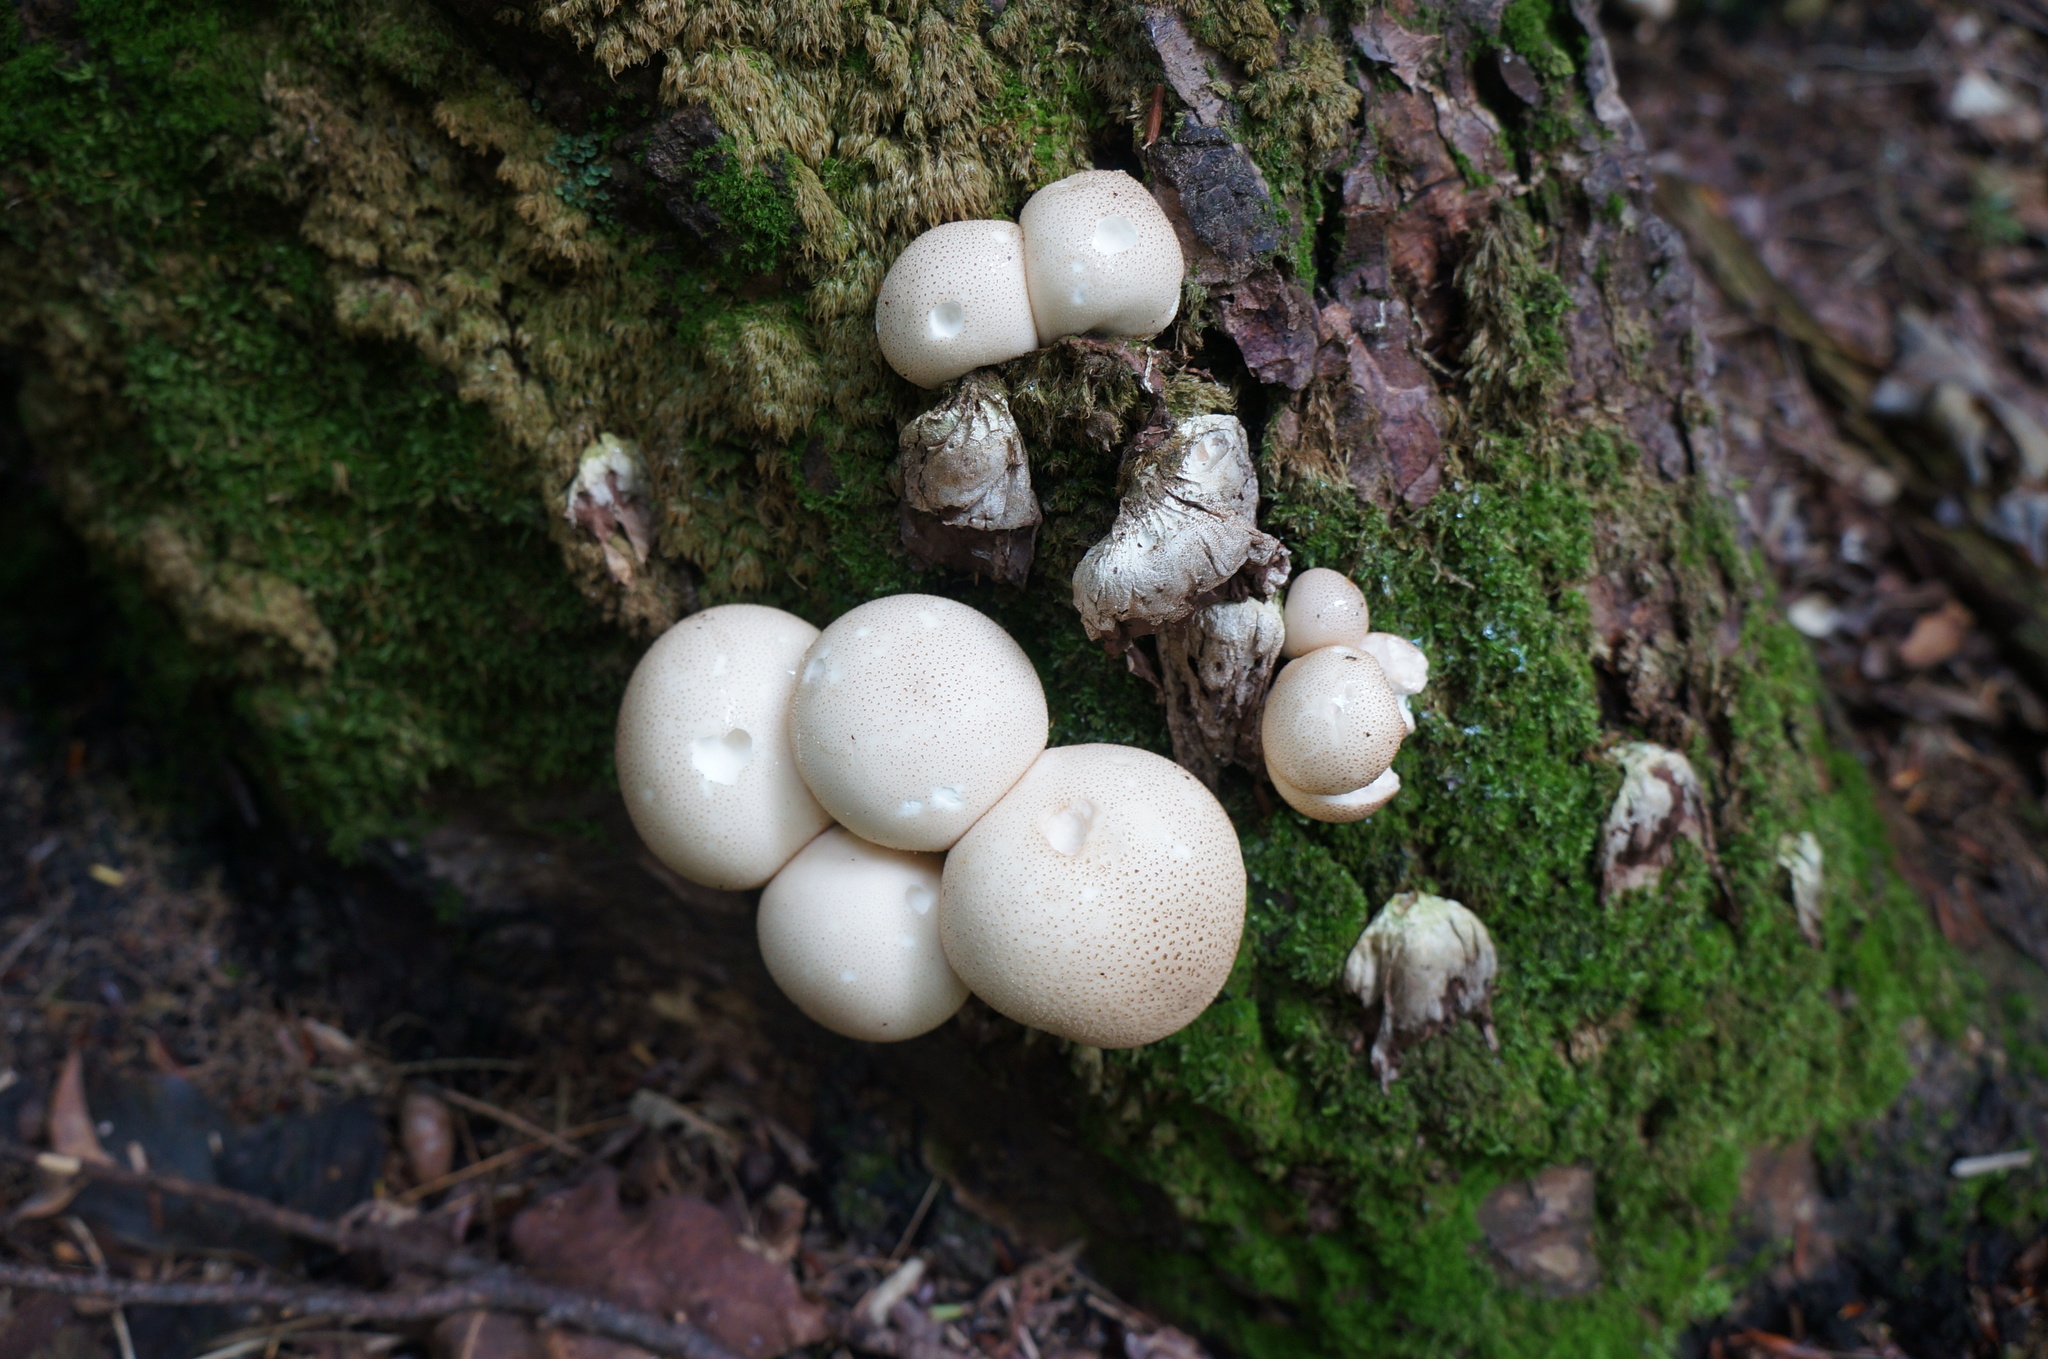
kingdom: Fungi
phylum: Basidiomycota
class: Agaricomycetes
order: Agaricales
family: Lycoperdaceae
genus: Apioperdon
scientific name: Apioperdon pyriforme
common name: Pear-shaped puffball
